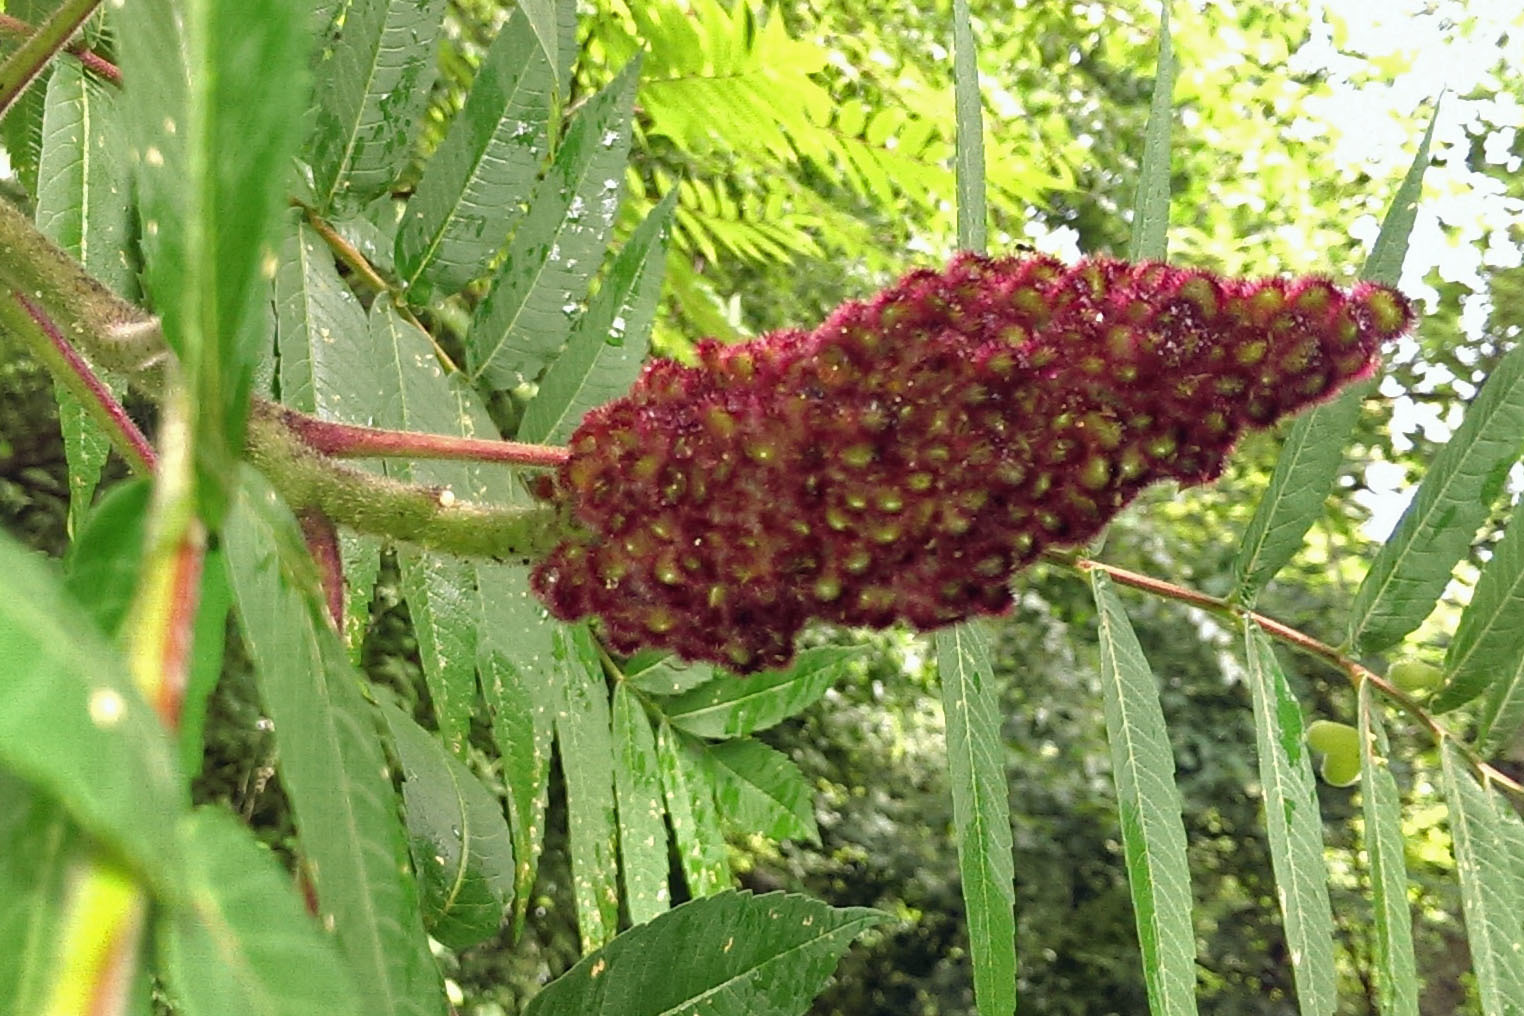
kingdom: Plantae
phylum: Tracheophyta
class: Magnoliopsida
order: Sapindales
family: Anacardiaceae
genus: Rhus
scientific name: Rhus typhina
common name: Staghorn sumac
